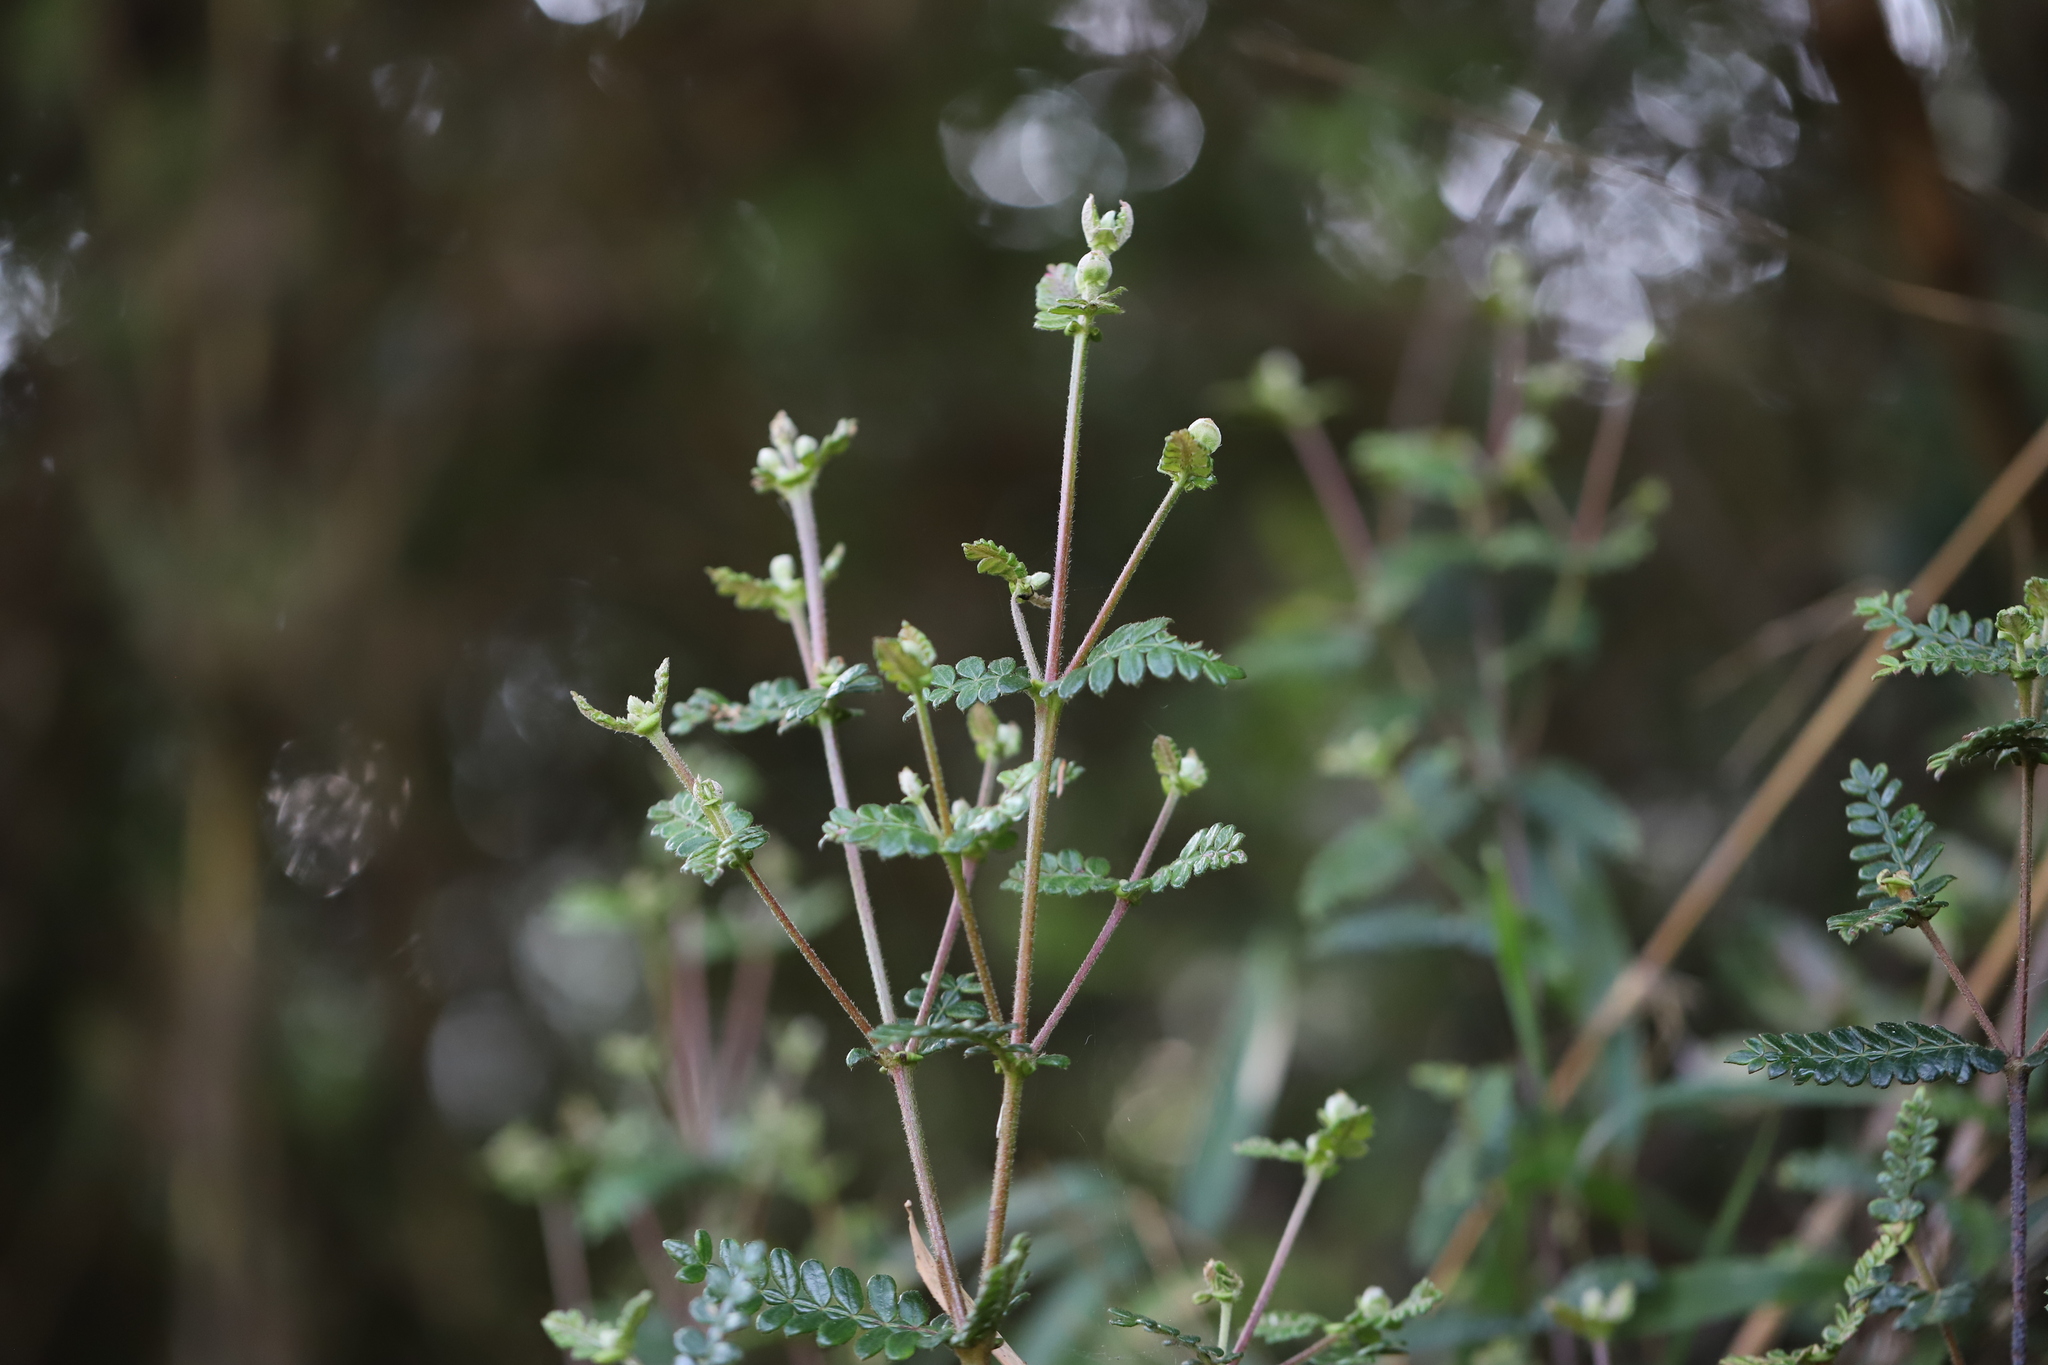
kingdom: Plantae
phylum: Tracheophyta
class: Magnoliopsida
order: Oxalidales
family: Cunoniaceae
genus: Weinmannia
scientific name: Weinmannia tomentosa
